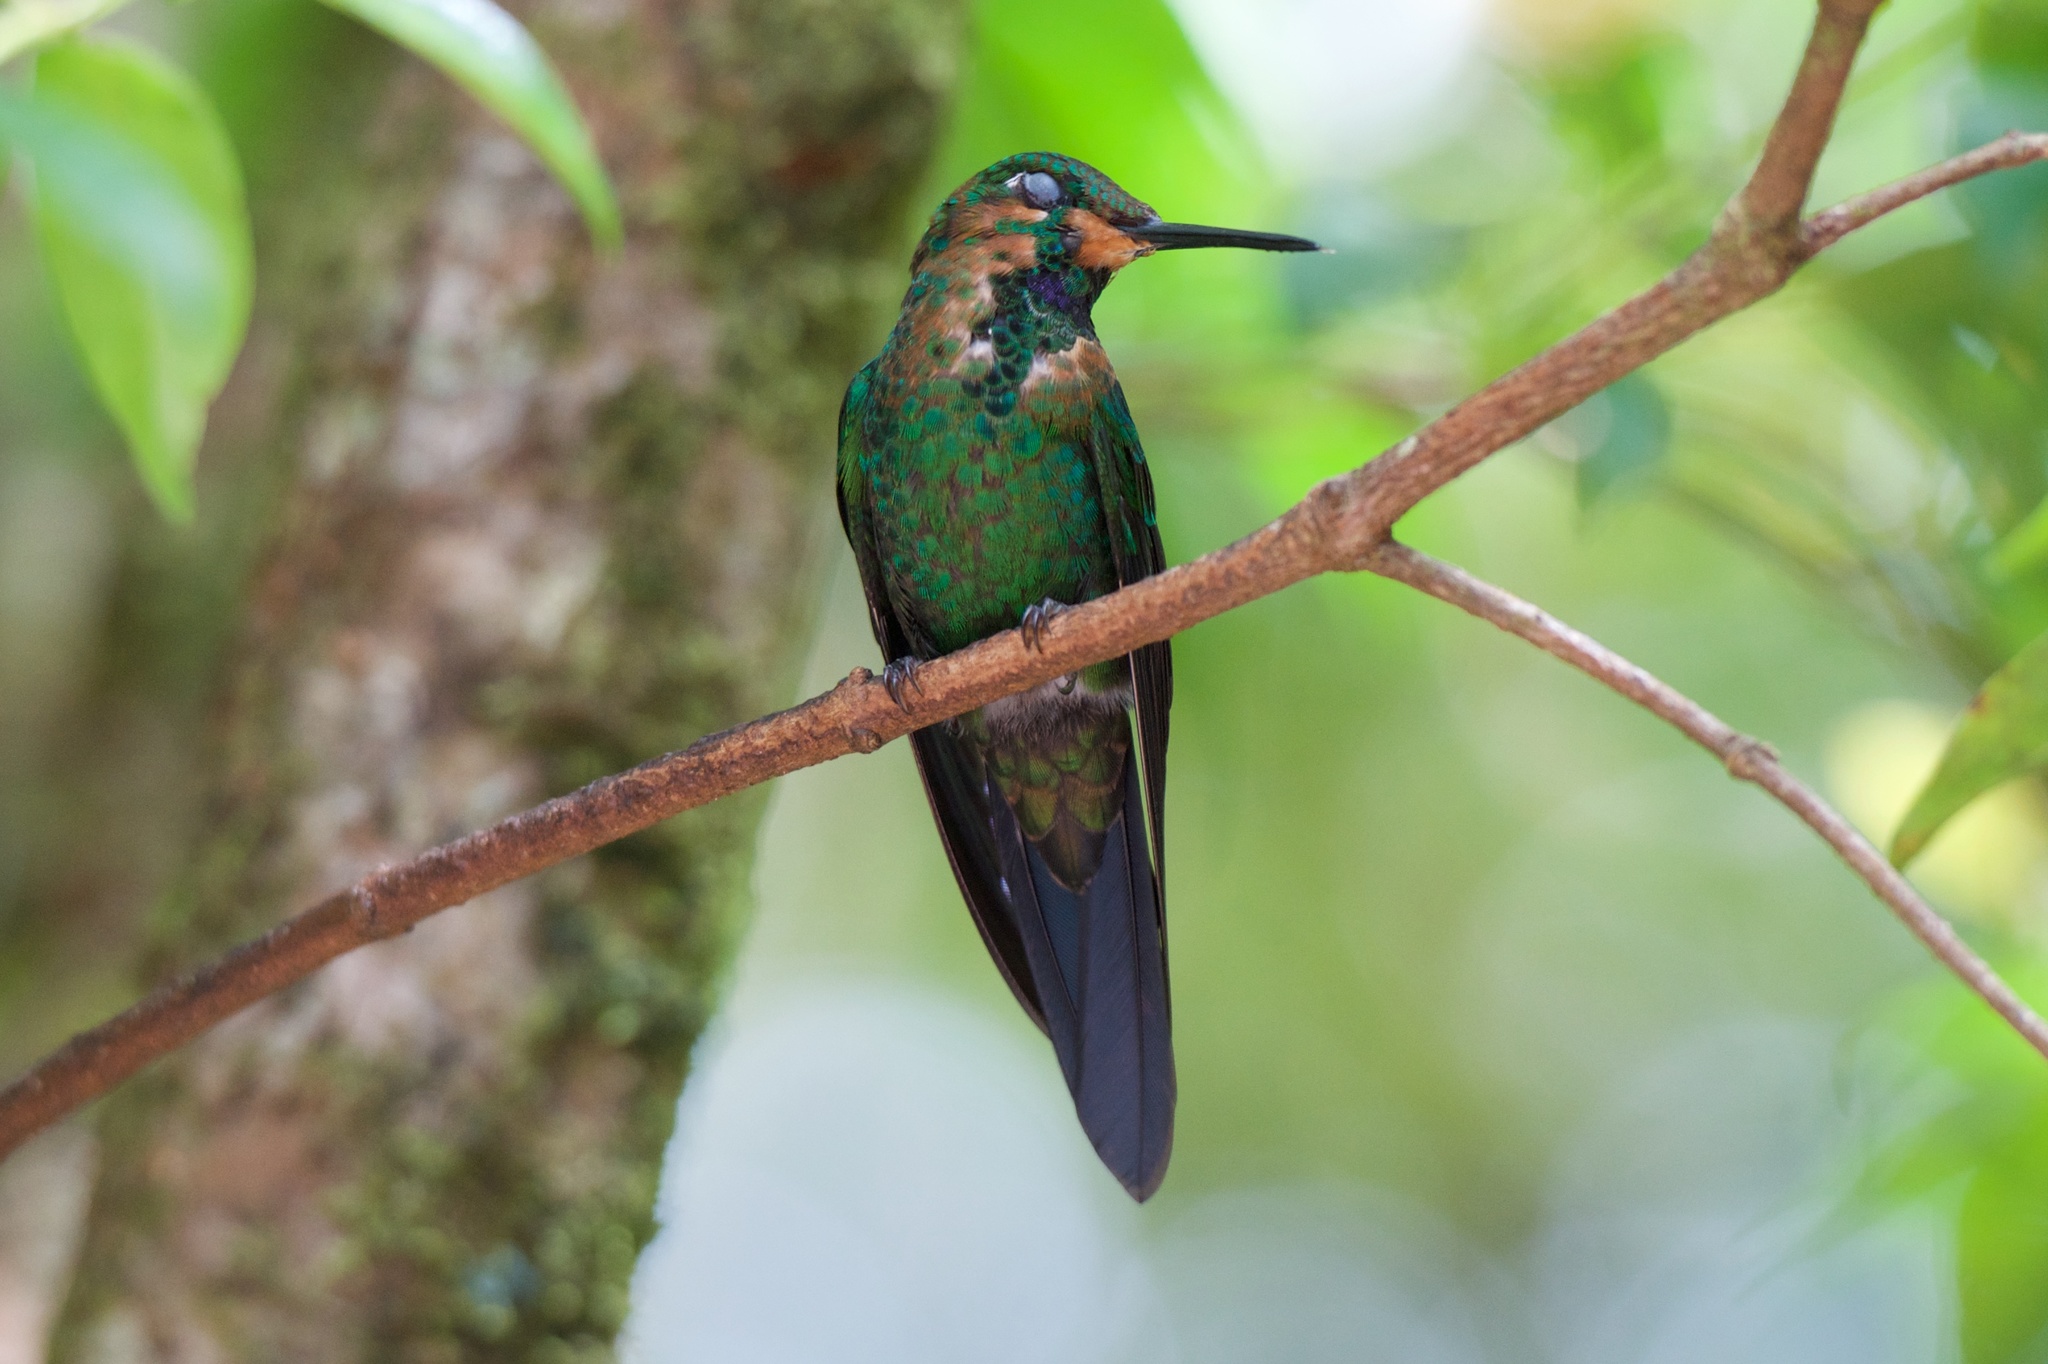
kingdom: Animalia
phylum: Chordata
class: Aves
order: Apodiformes
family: Trochilidae
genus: Heliodoxa
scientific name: Heliodoxa jacula
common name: Green-crowned brilliant
